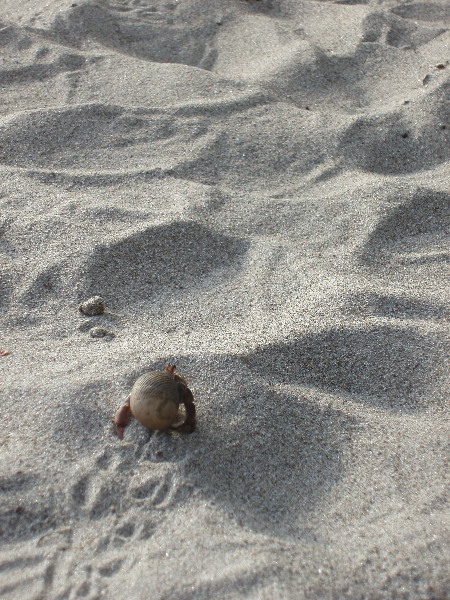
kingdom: Animalia
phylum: Arthropoda
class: Malacostraca
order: Decapoda
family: Coenobitidae
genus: Coenobita
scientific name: Coenobita compressus
